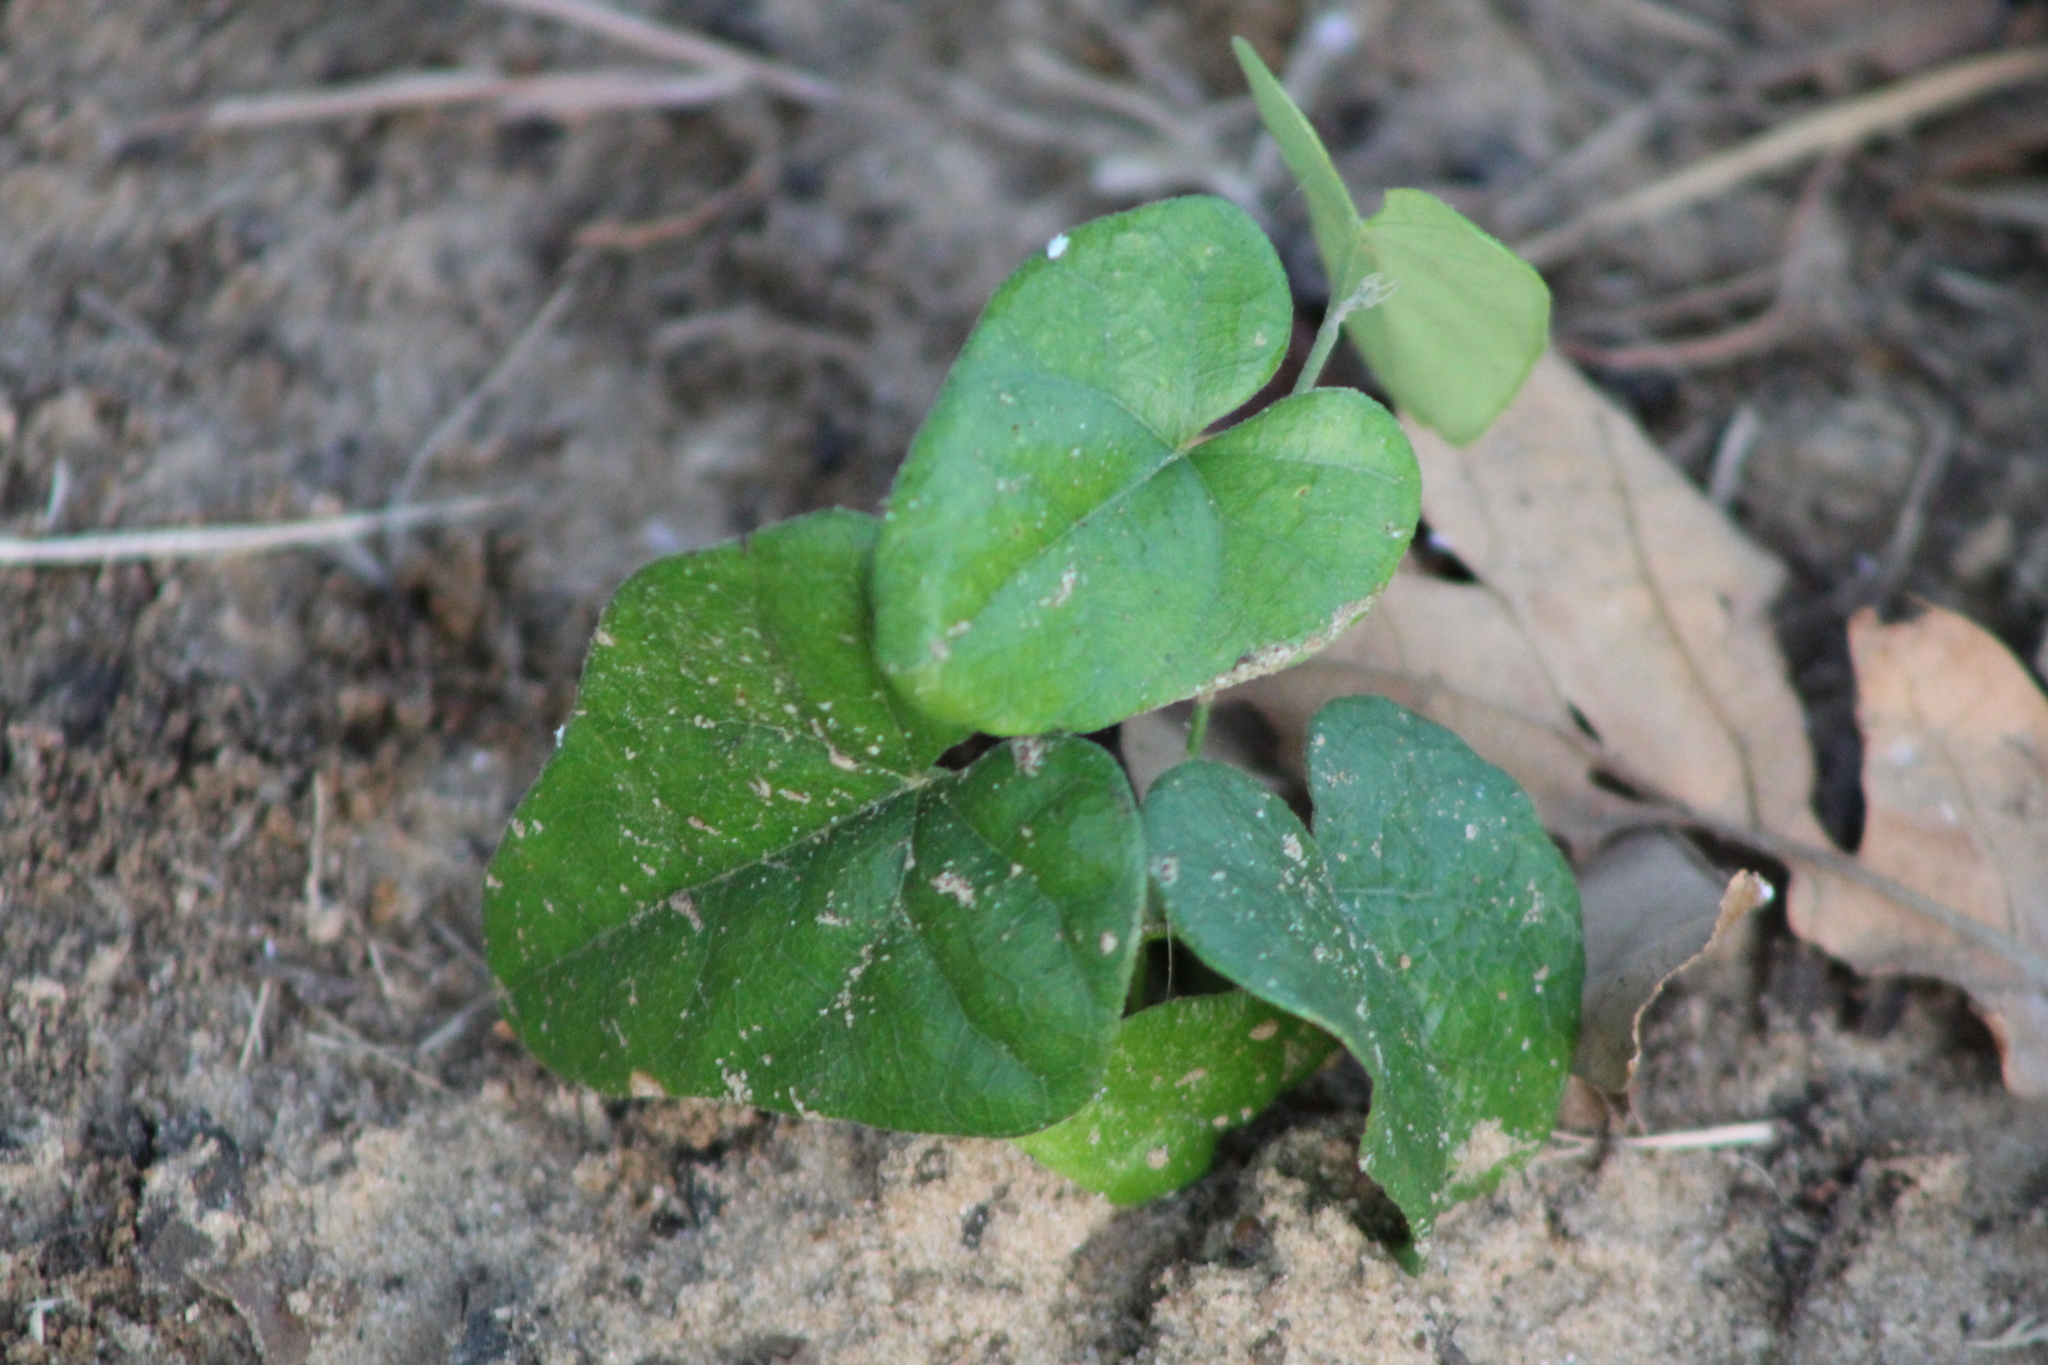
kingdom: Plantae
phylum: Tracheophyta
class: Magnoliopsida
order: Ranunculales
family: Menispermaceae
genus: Cocculus
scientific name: Cocculus carolinus
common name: Carolina moonseed
